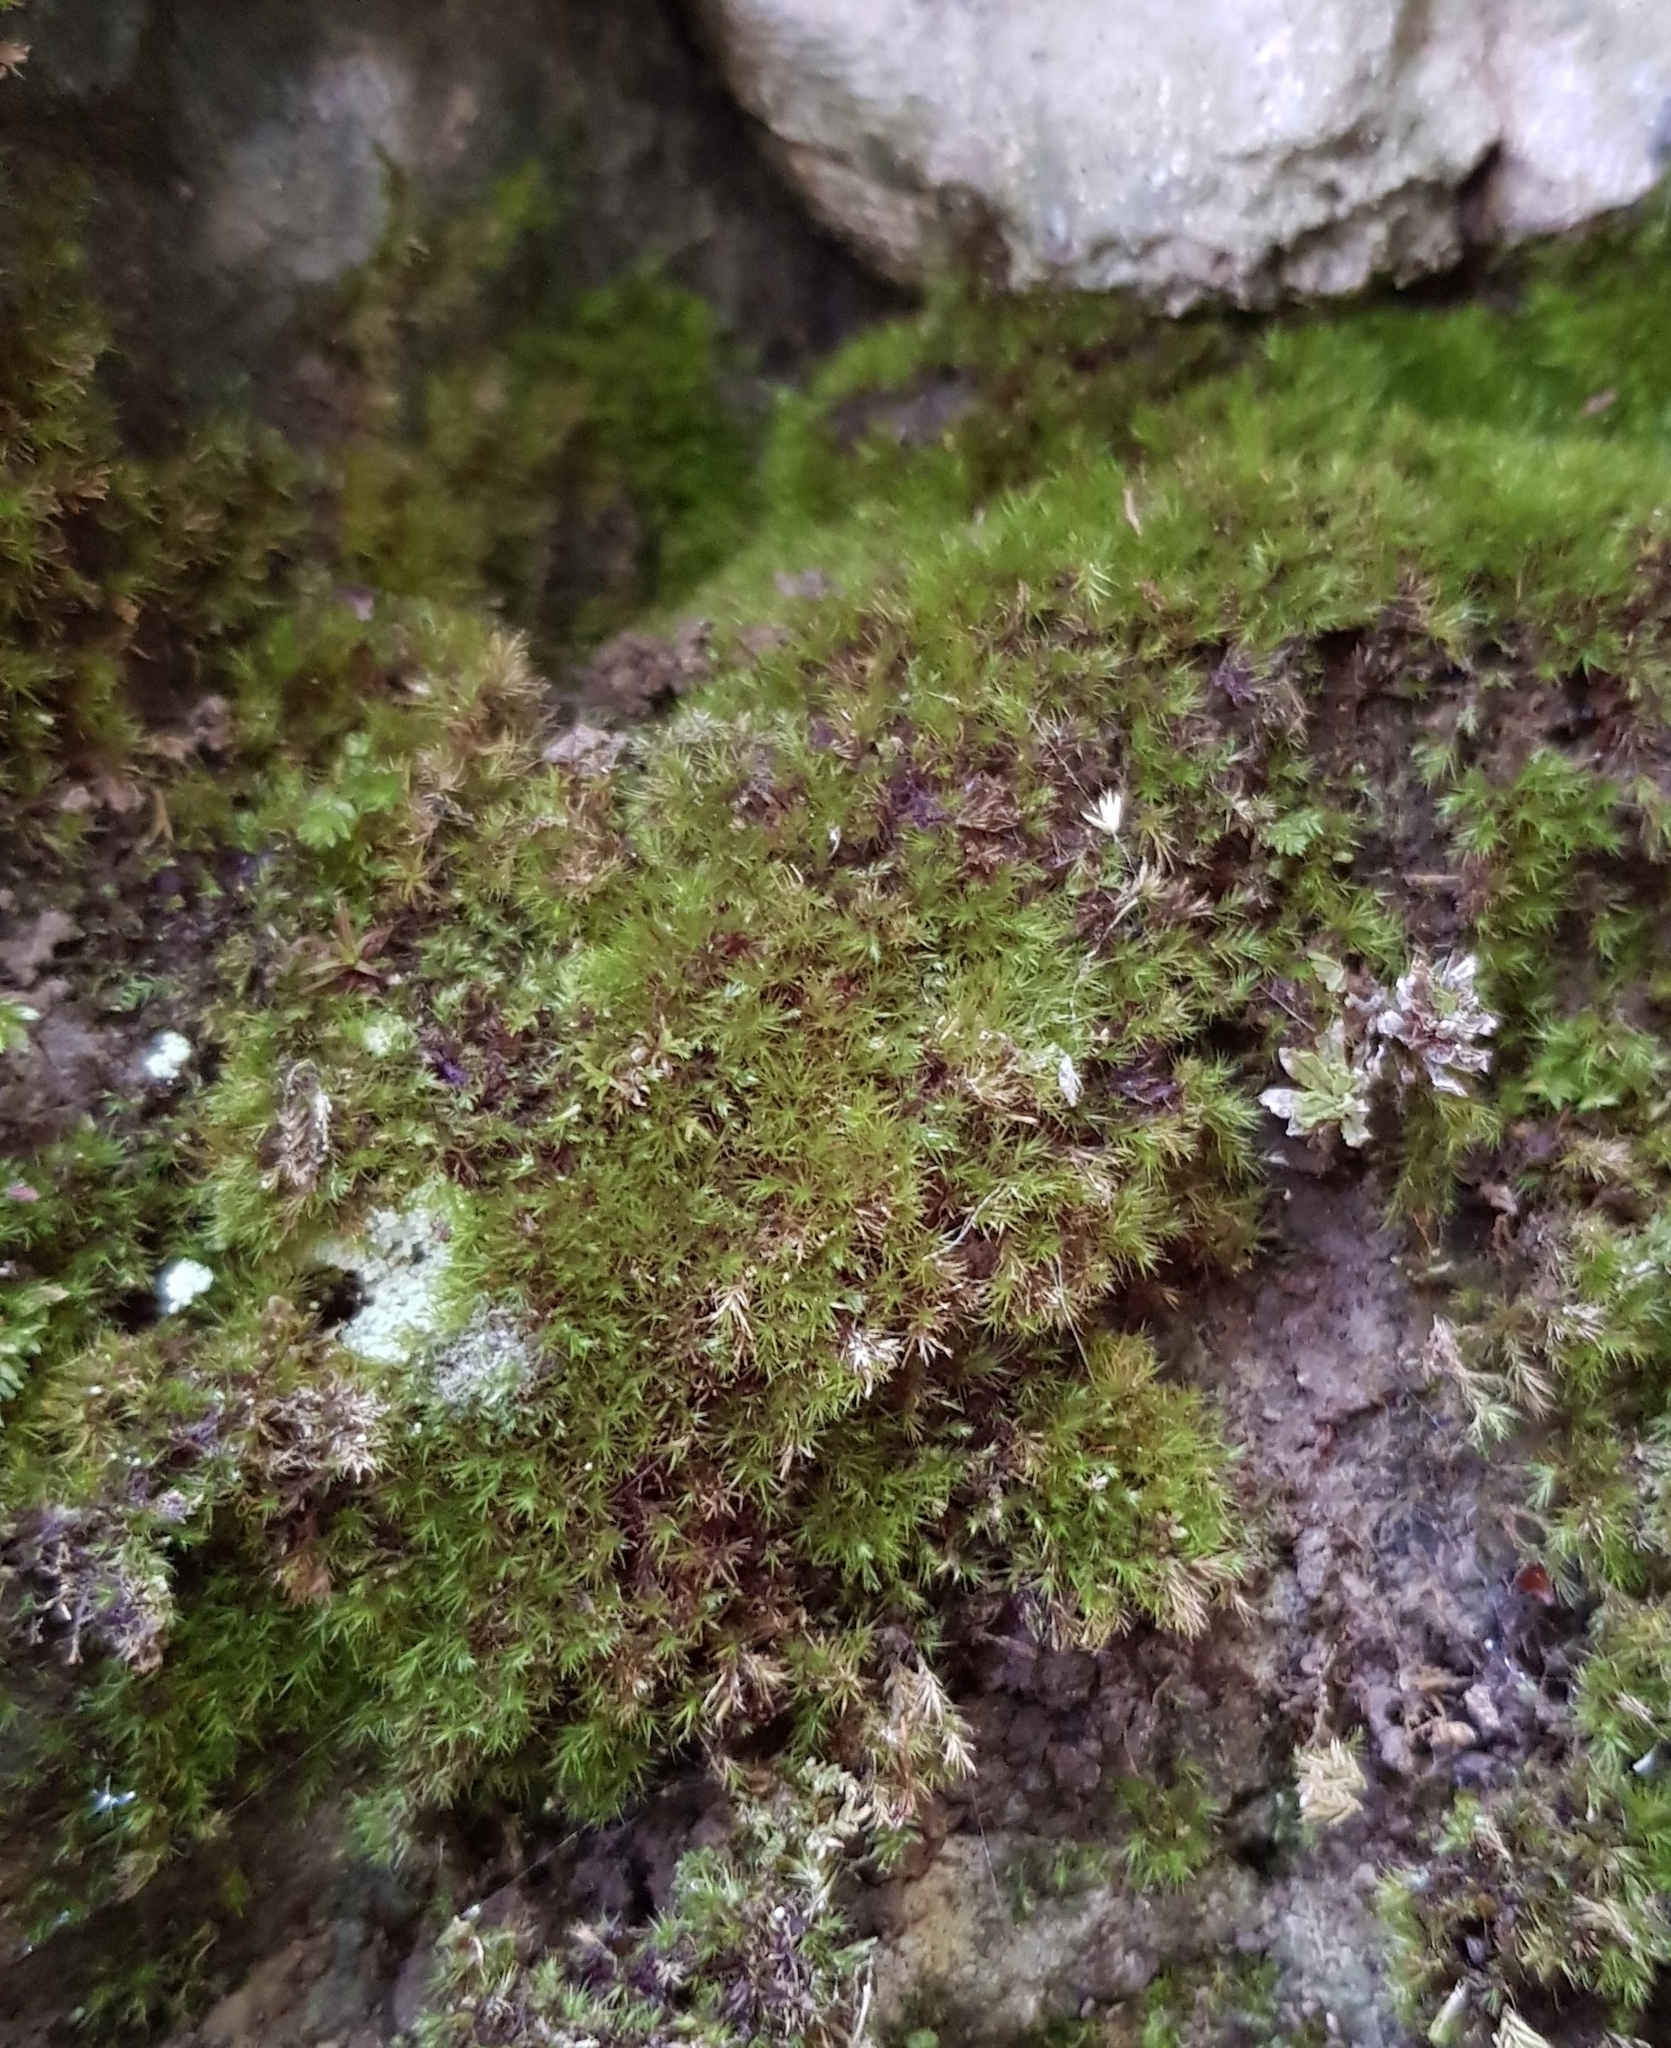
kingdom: Plantae
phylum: Bryophyta
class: Bryopsida
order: Hypnales
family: Brachytheciaceae
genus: Rhynchostegiella
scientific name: Rhynchostegiella tenella
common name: Tender feather-moss
